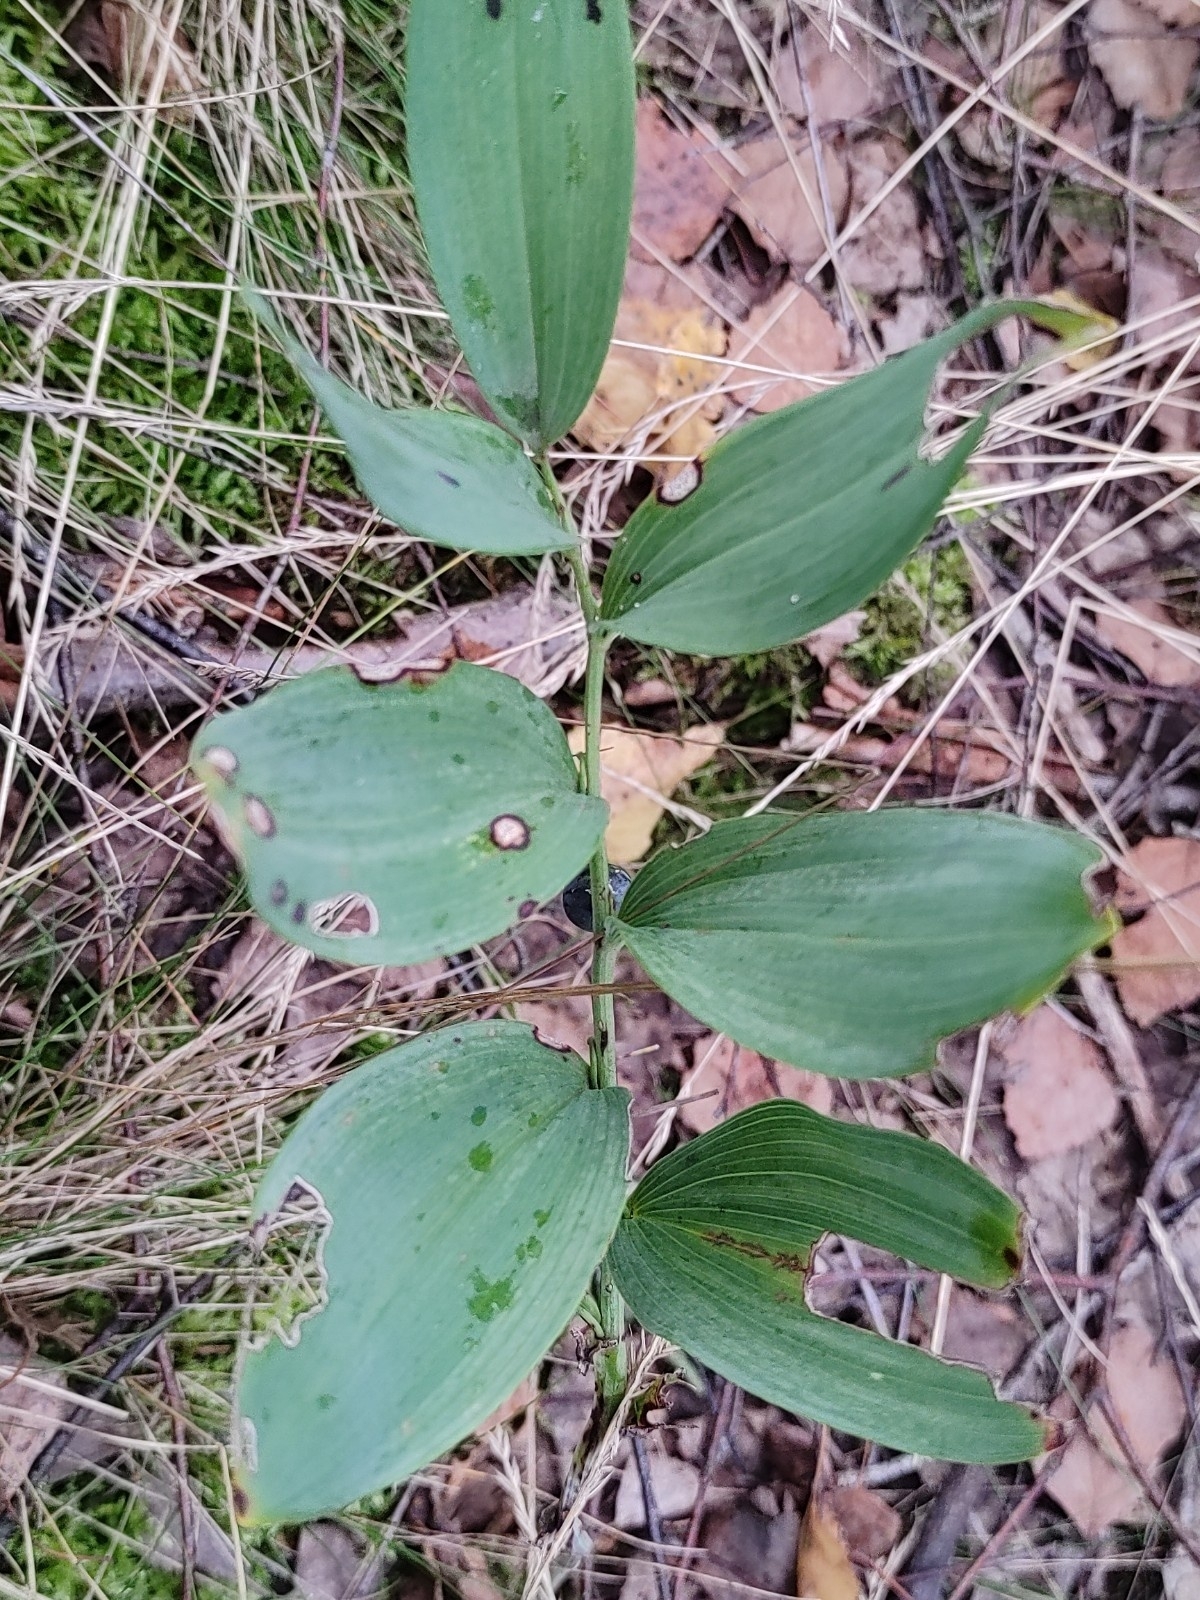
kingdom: Plantae
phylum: Tracheophyta
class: Liliopsida
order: Asparagales
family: Asparagaceae
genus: Polygonatum
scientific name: Polygonatum odoratum
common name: Angular solomon's-seal
